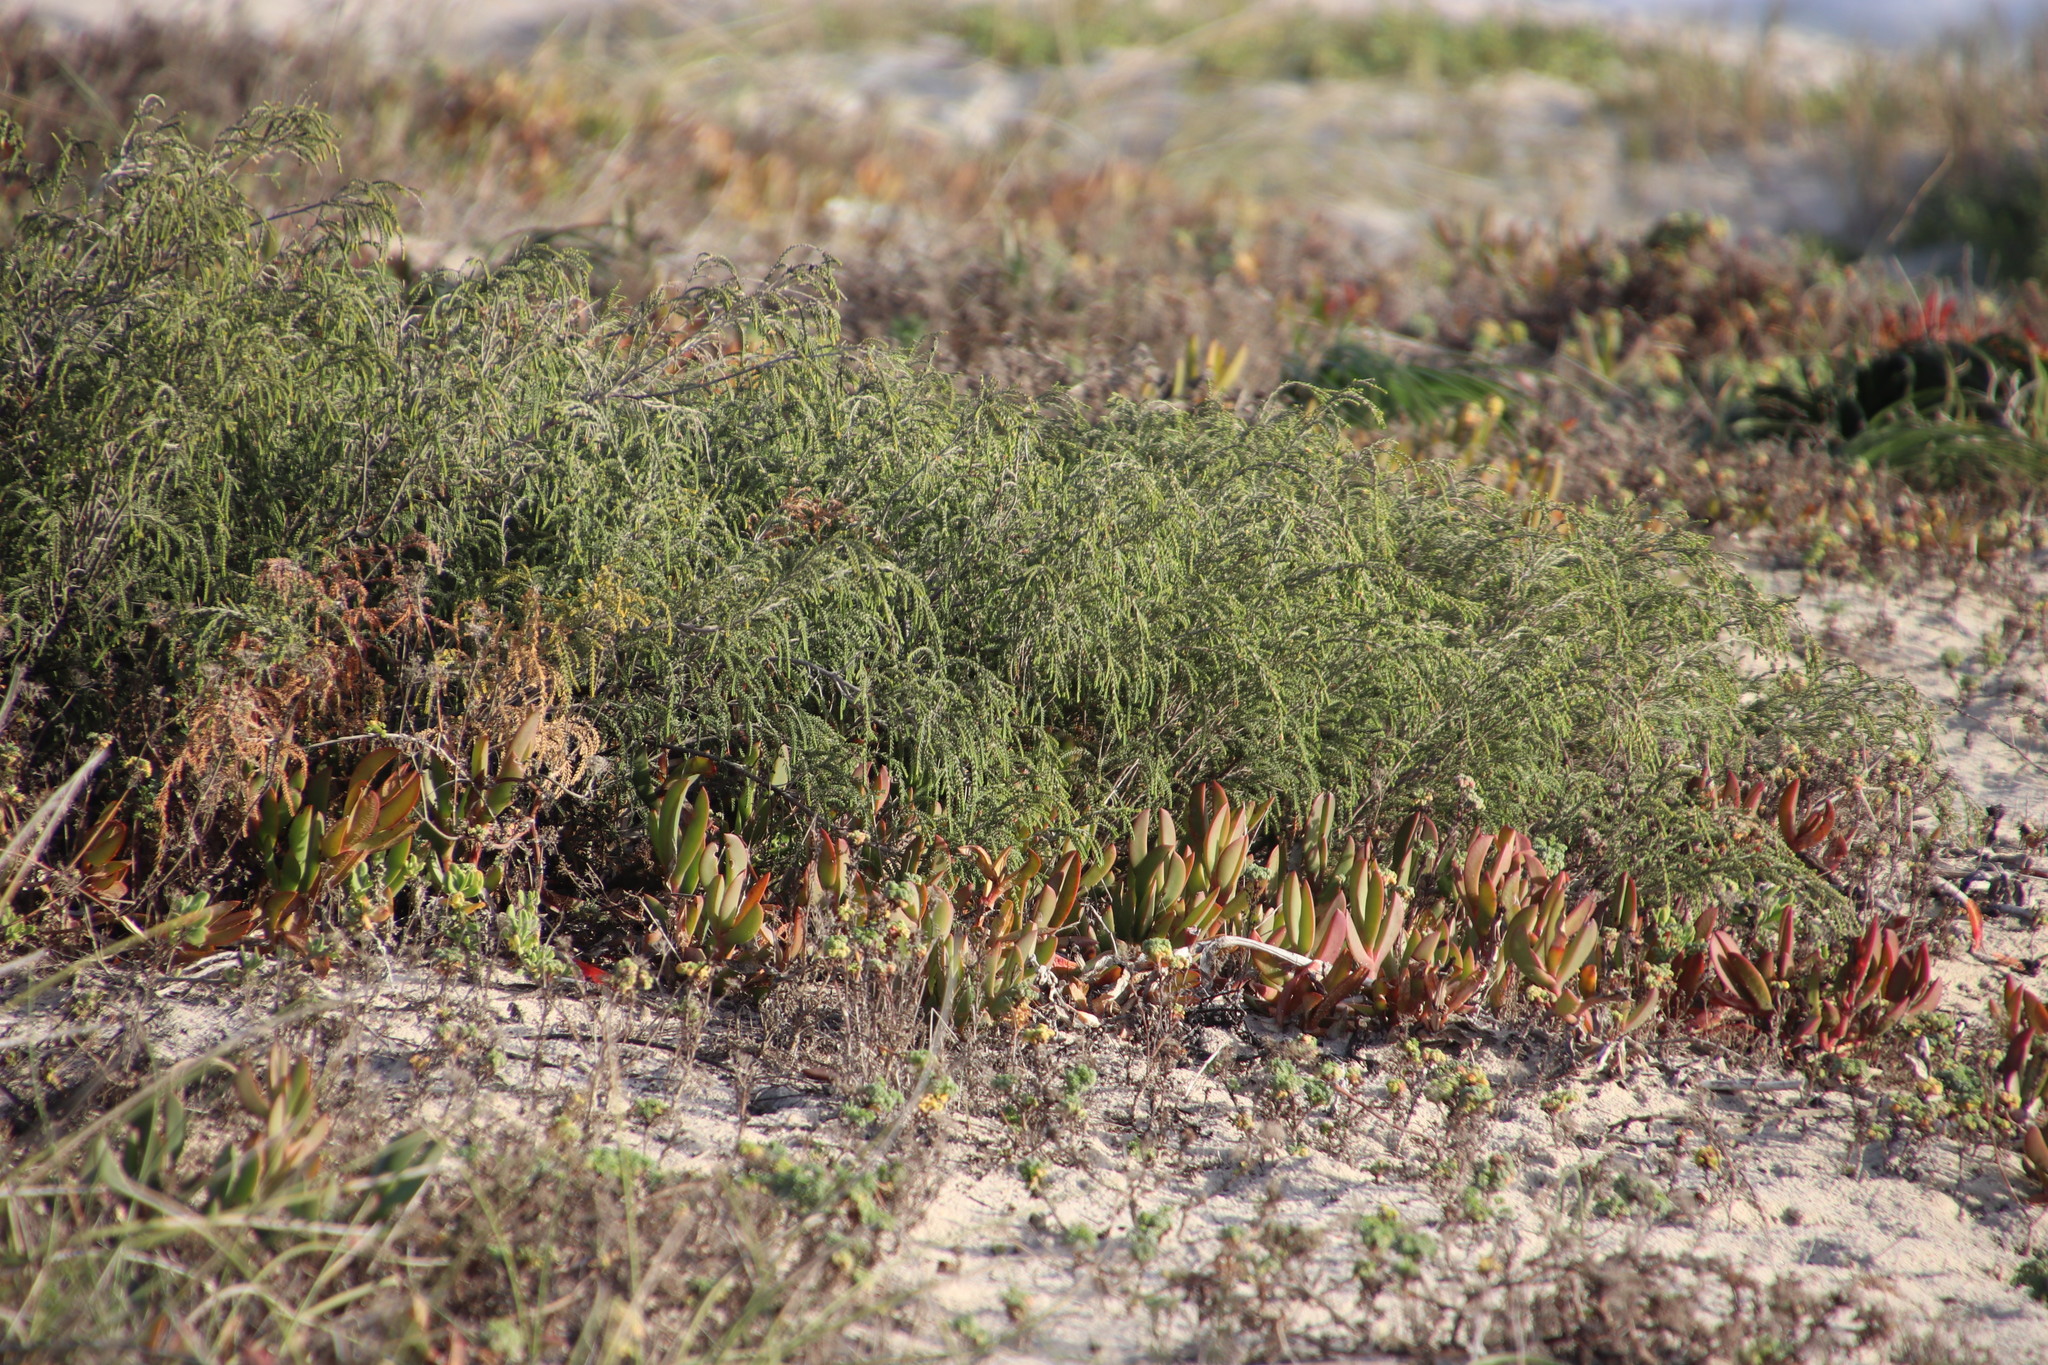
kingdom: Plantae
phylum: Tracheophyta
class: Magnoliopsida
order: Malvales
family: Thymelaeaceae
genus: Passerina
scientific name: Passerina ericoides
